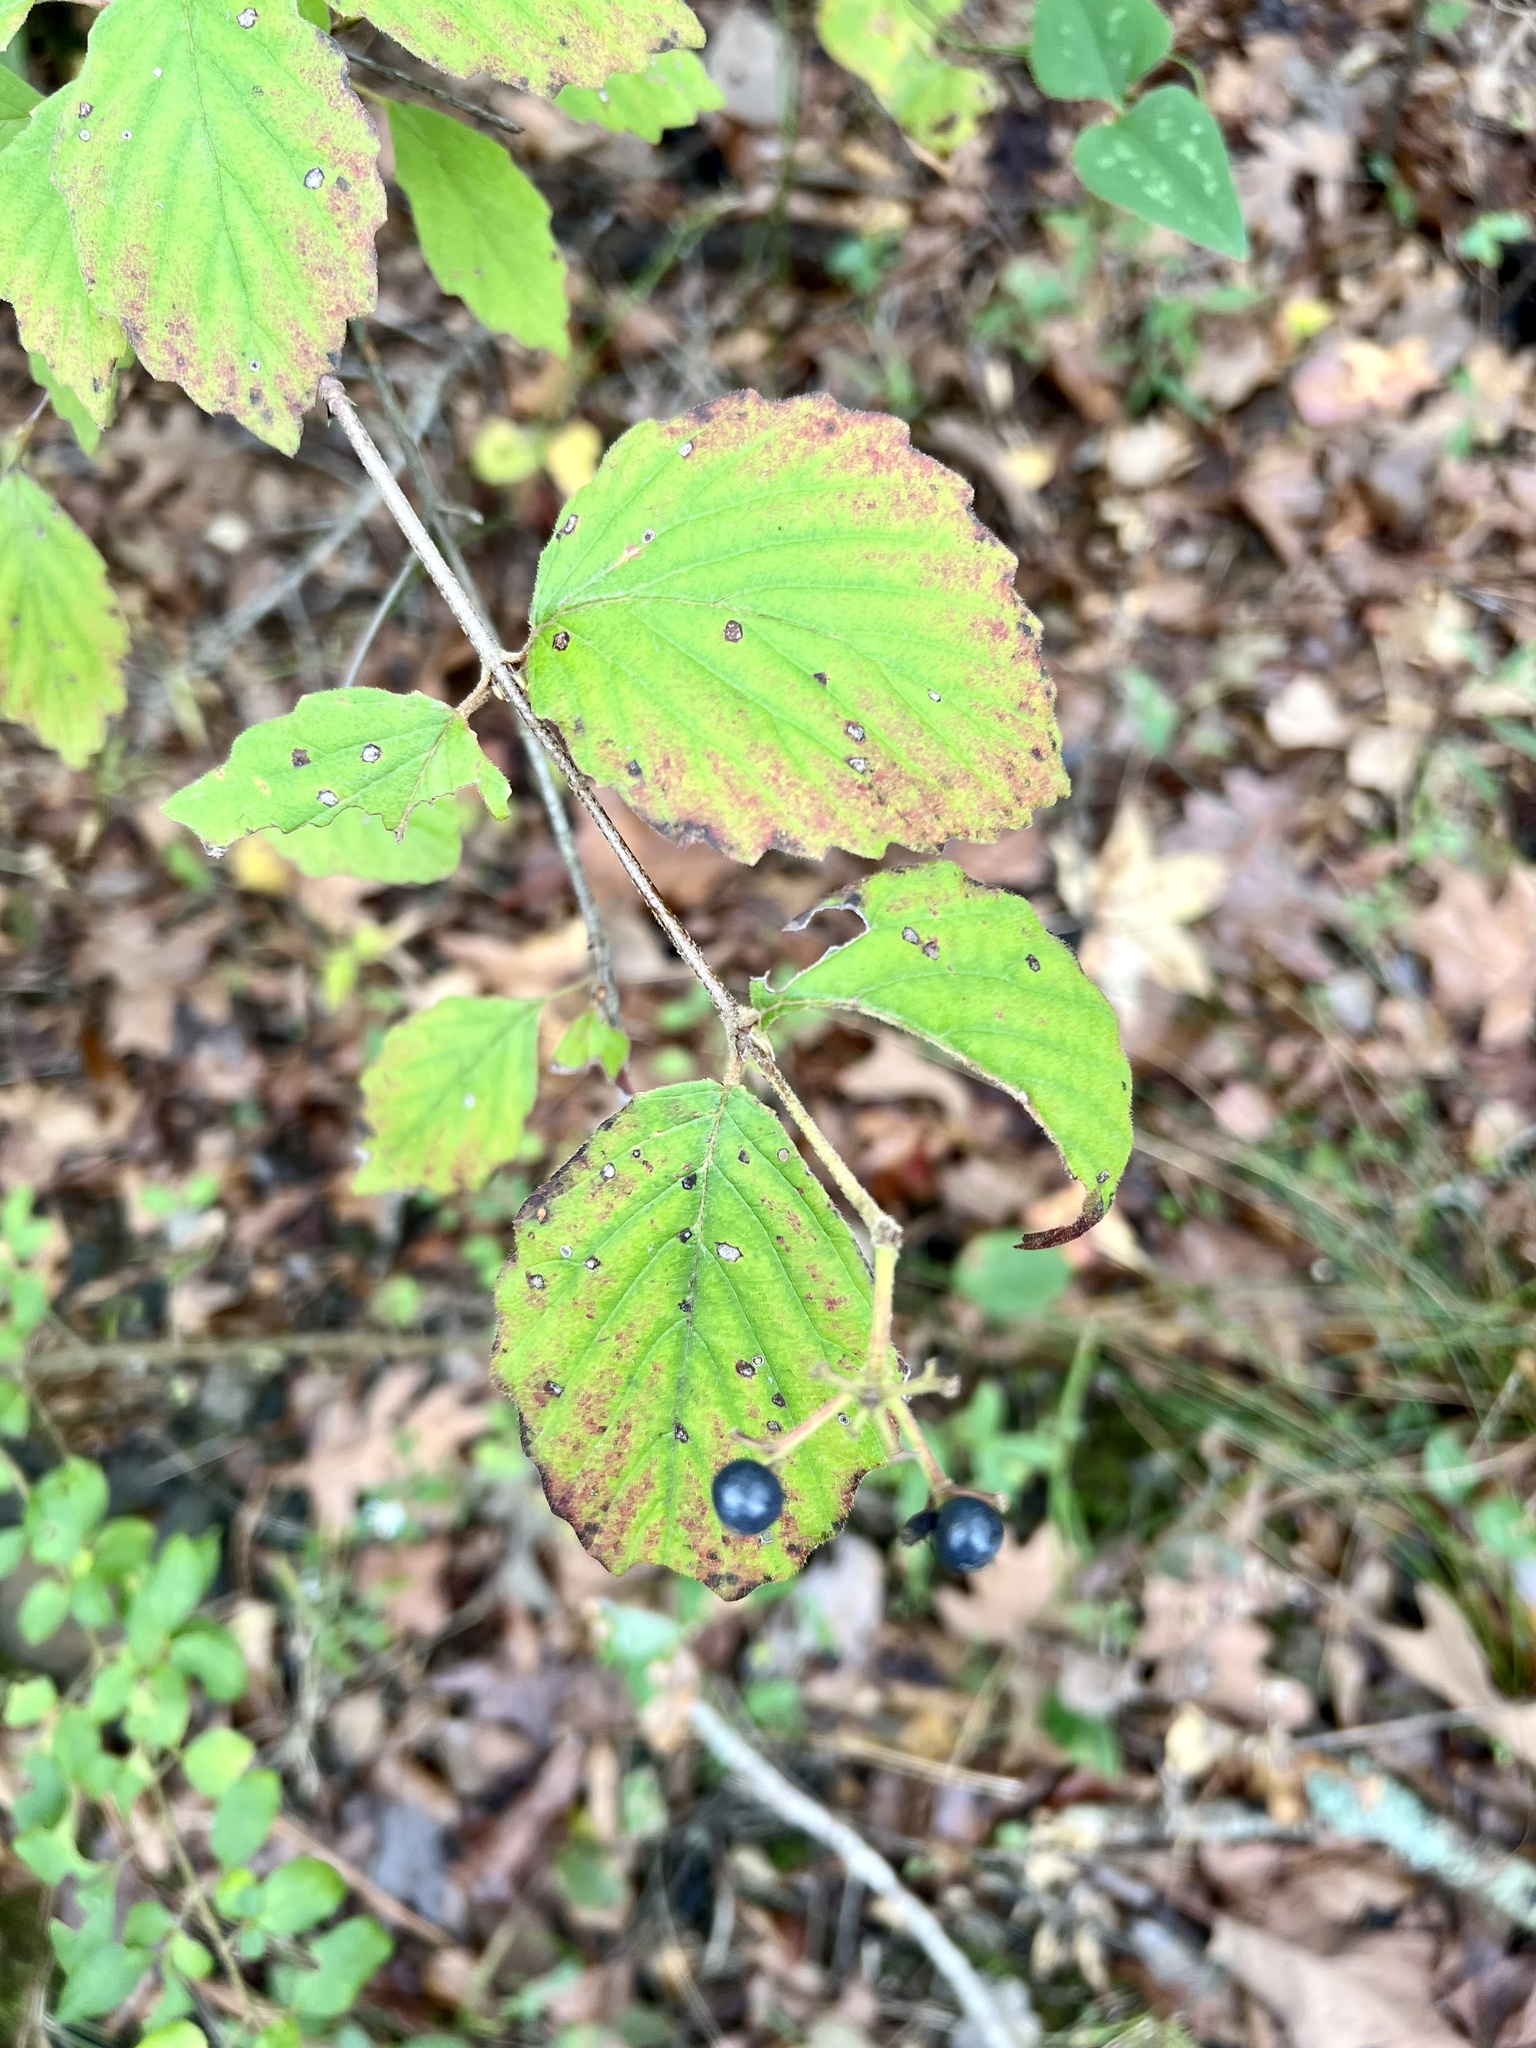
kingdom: Plantae
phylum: Tracheophyta
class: Magnoliopsida
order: Dipsacales
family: Viburnaceae
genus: Viburnum
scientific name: Viburnum scabrellum
